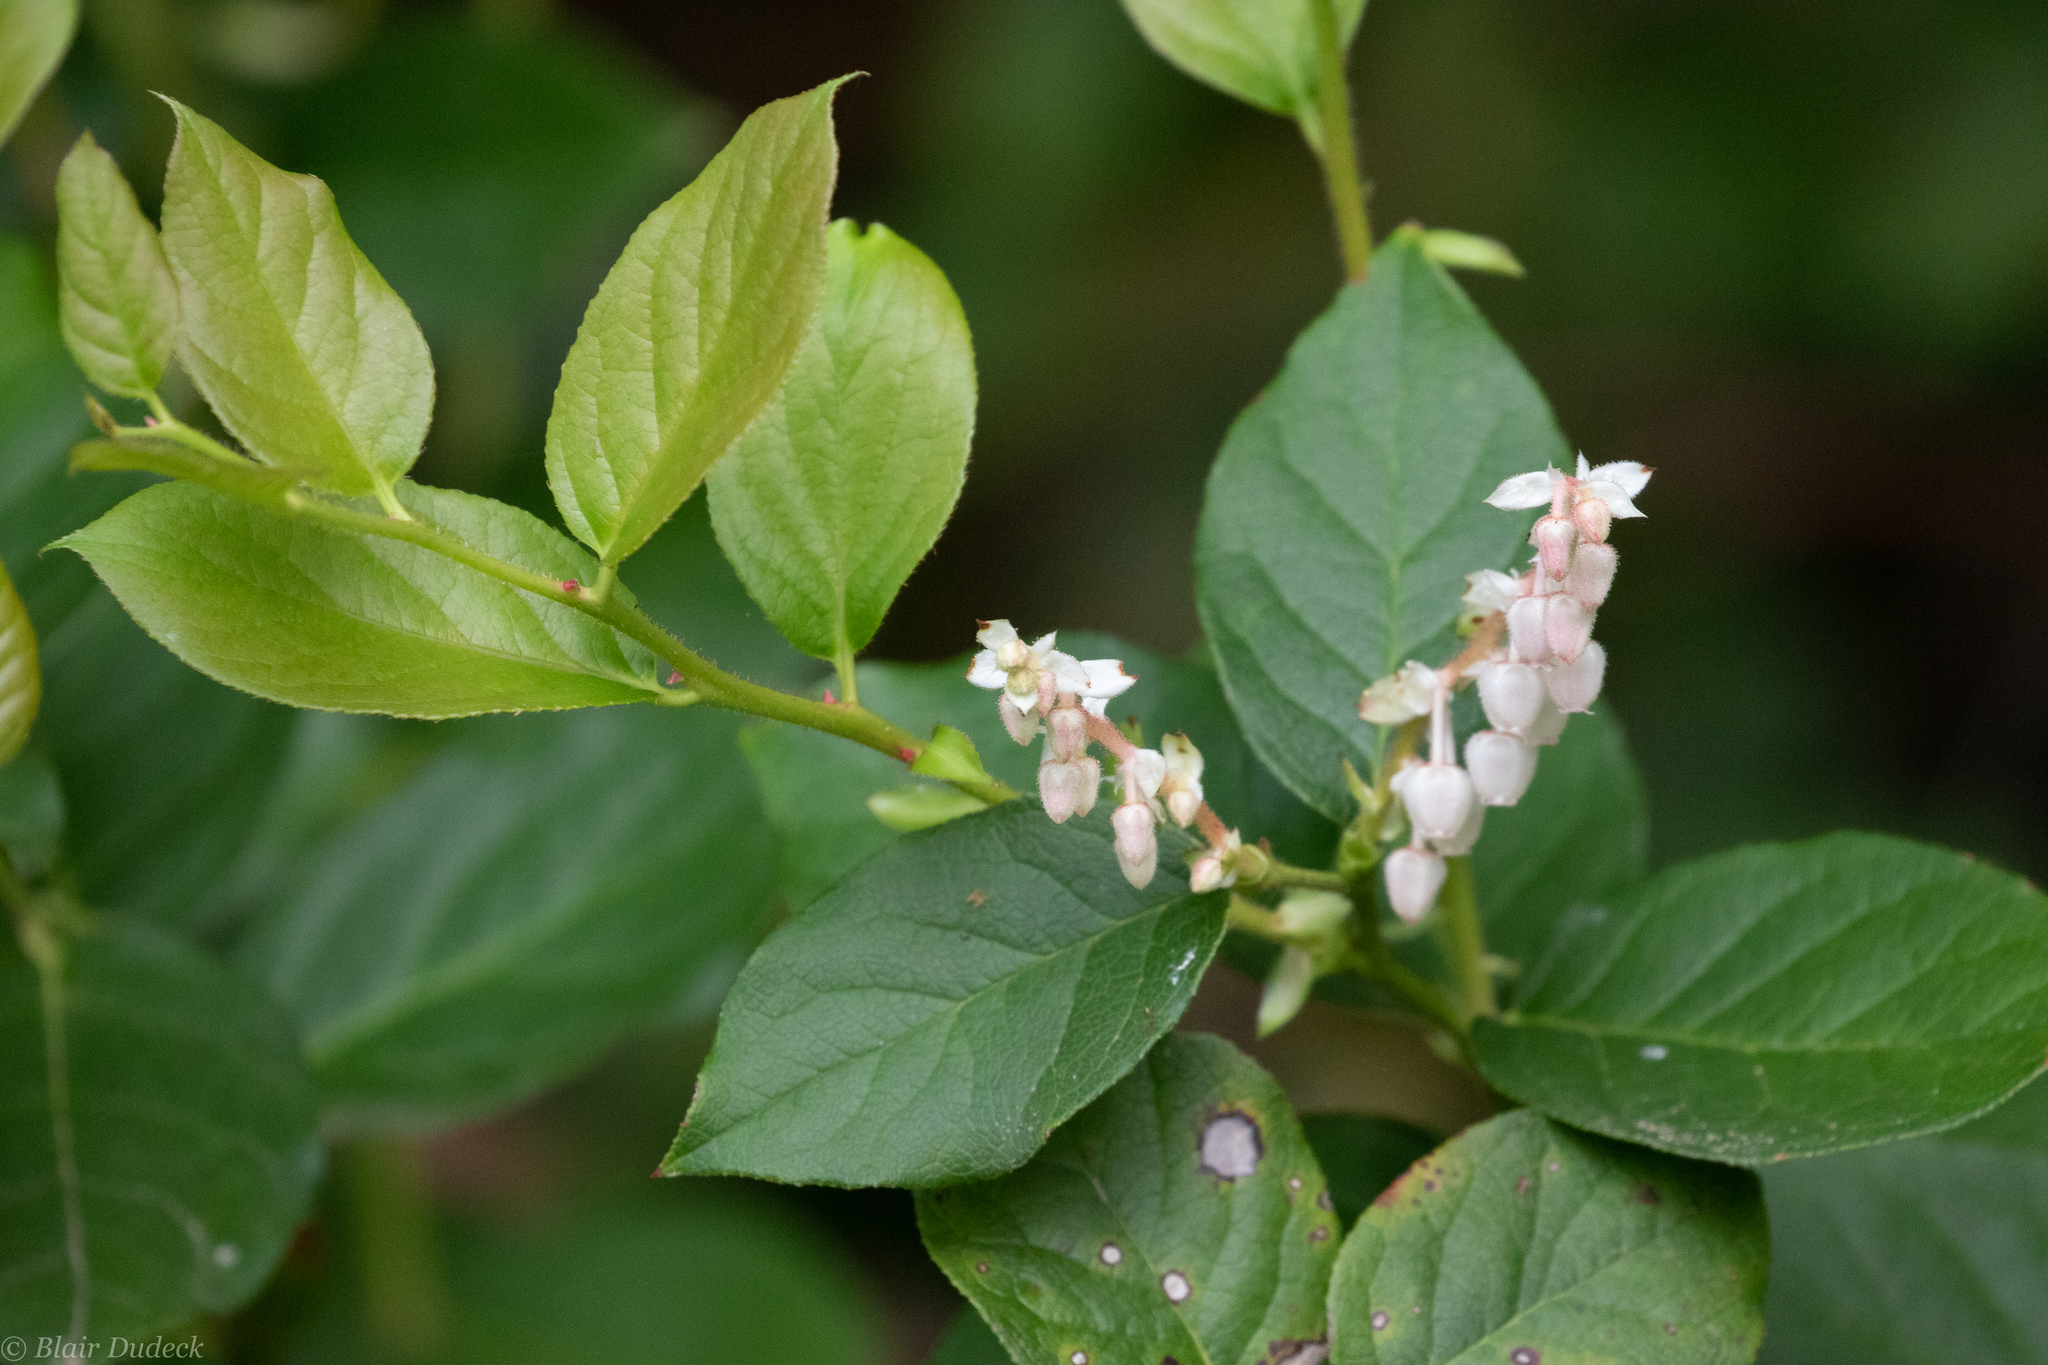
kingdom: Plantae
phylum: Tracheophyta
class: Magnoliopsida
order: Ericales
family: Ericaceae
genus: Gaultheria
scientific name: Gaultheria shallon
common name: Shallon
